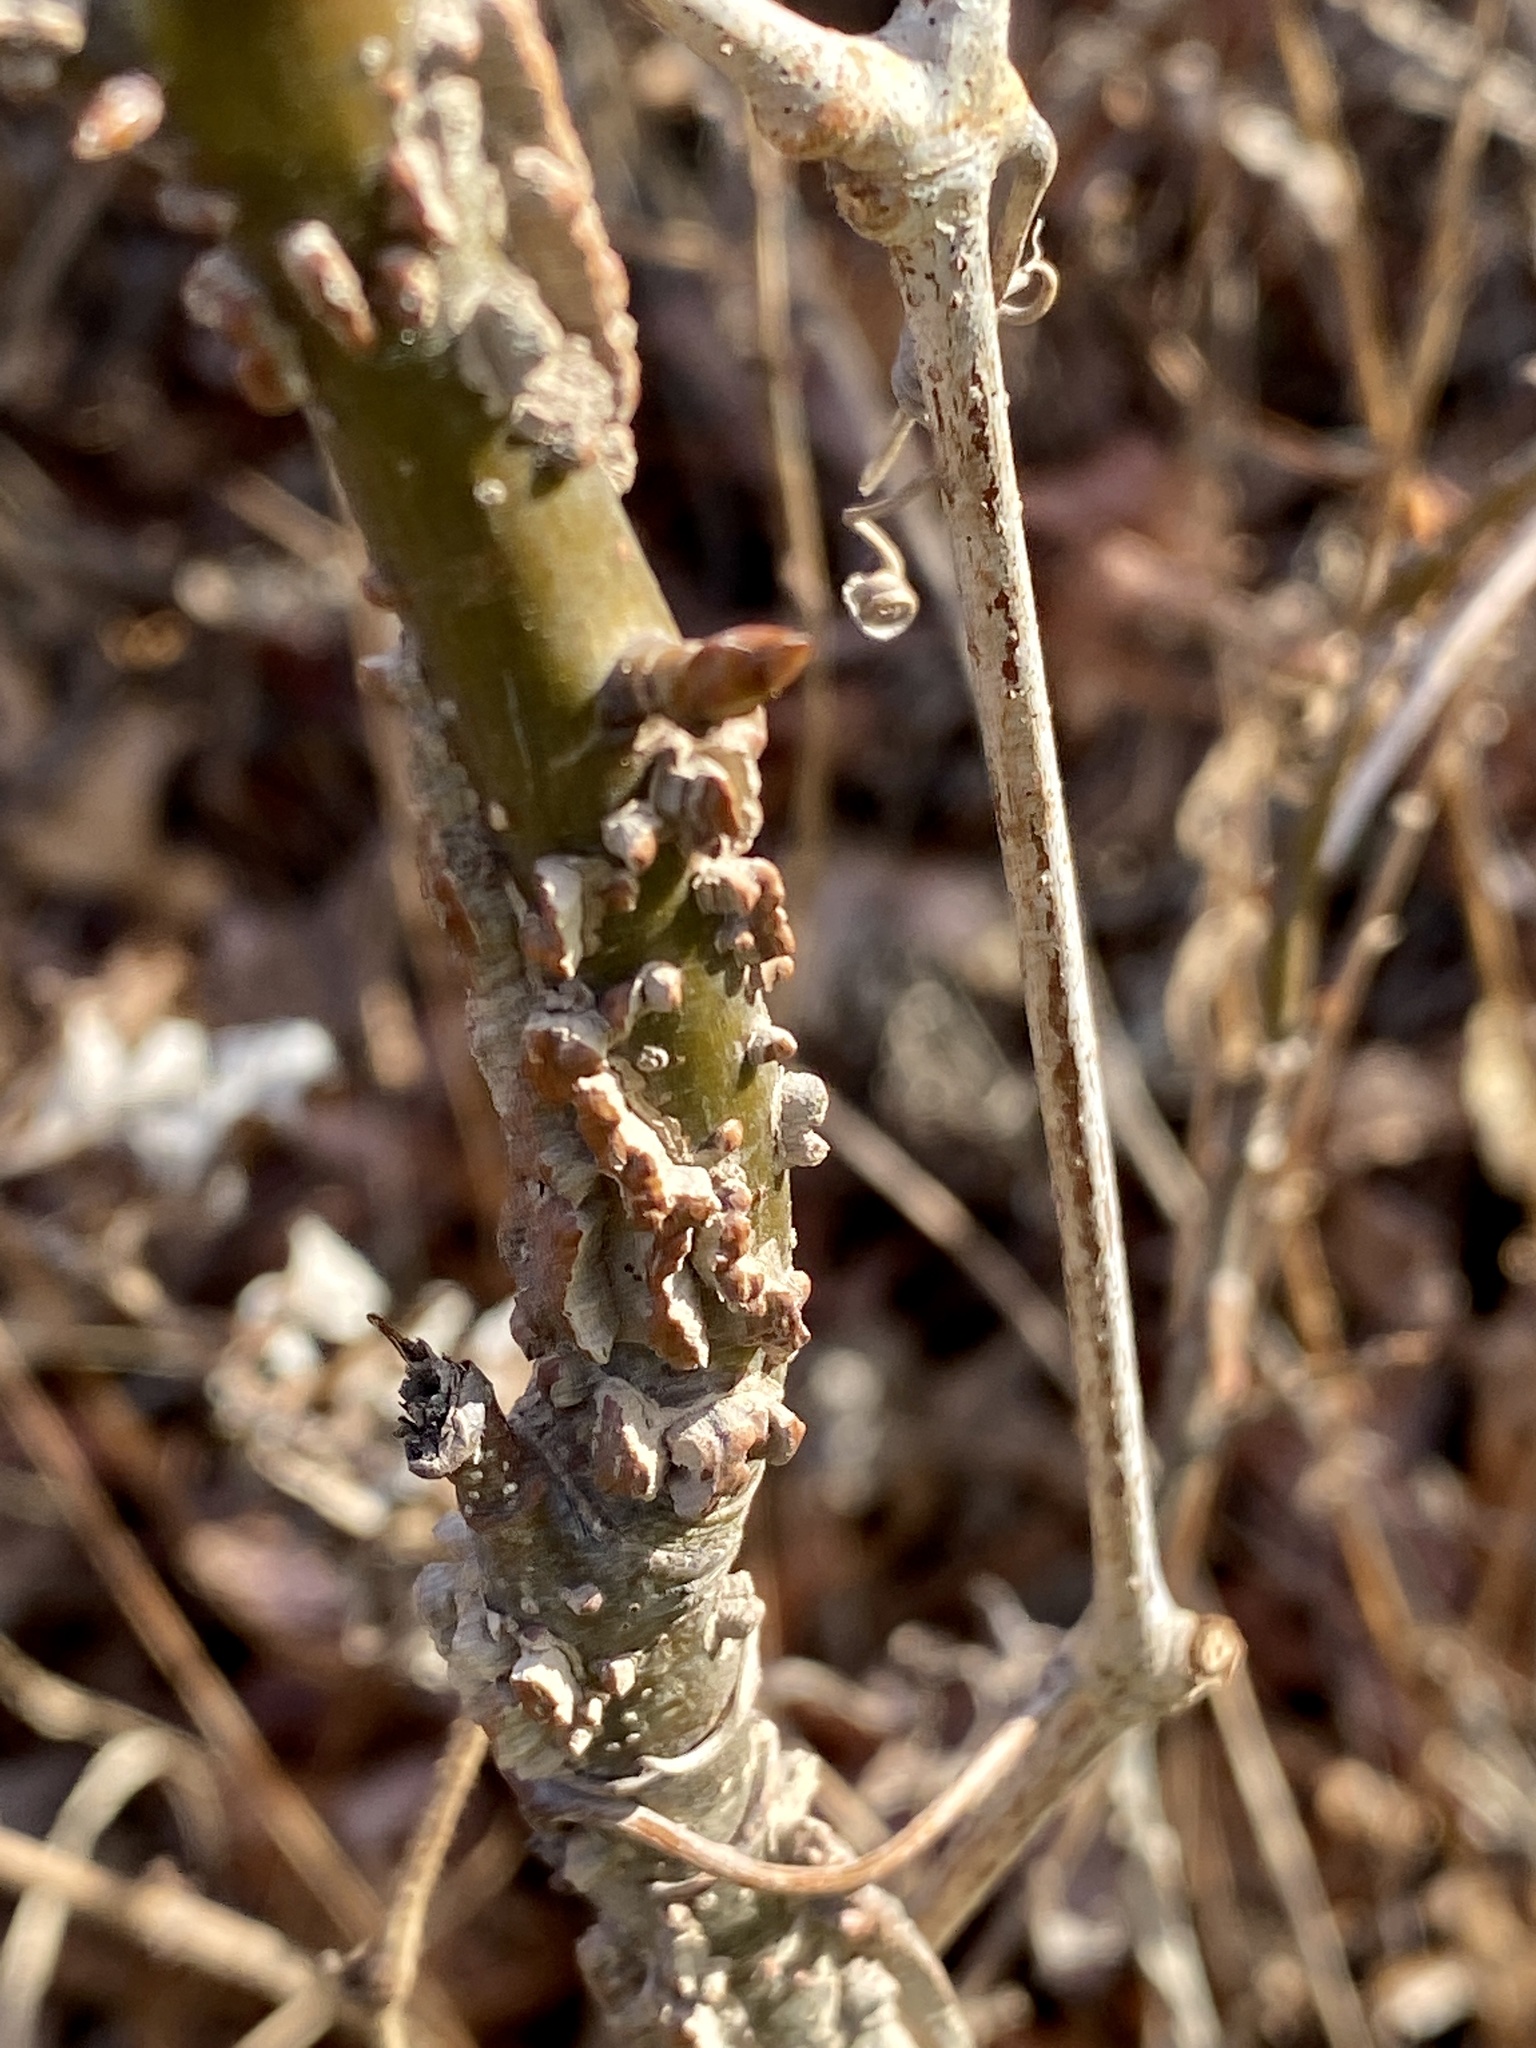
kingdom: Plantae
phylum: Tracheophyta
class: Magnoliopsida
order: Saxifragales
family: Altingiaceae
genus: Liquidambar
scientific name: Liquidambar styraciflua
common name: Sweet gum
